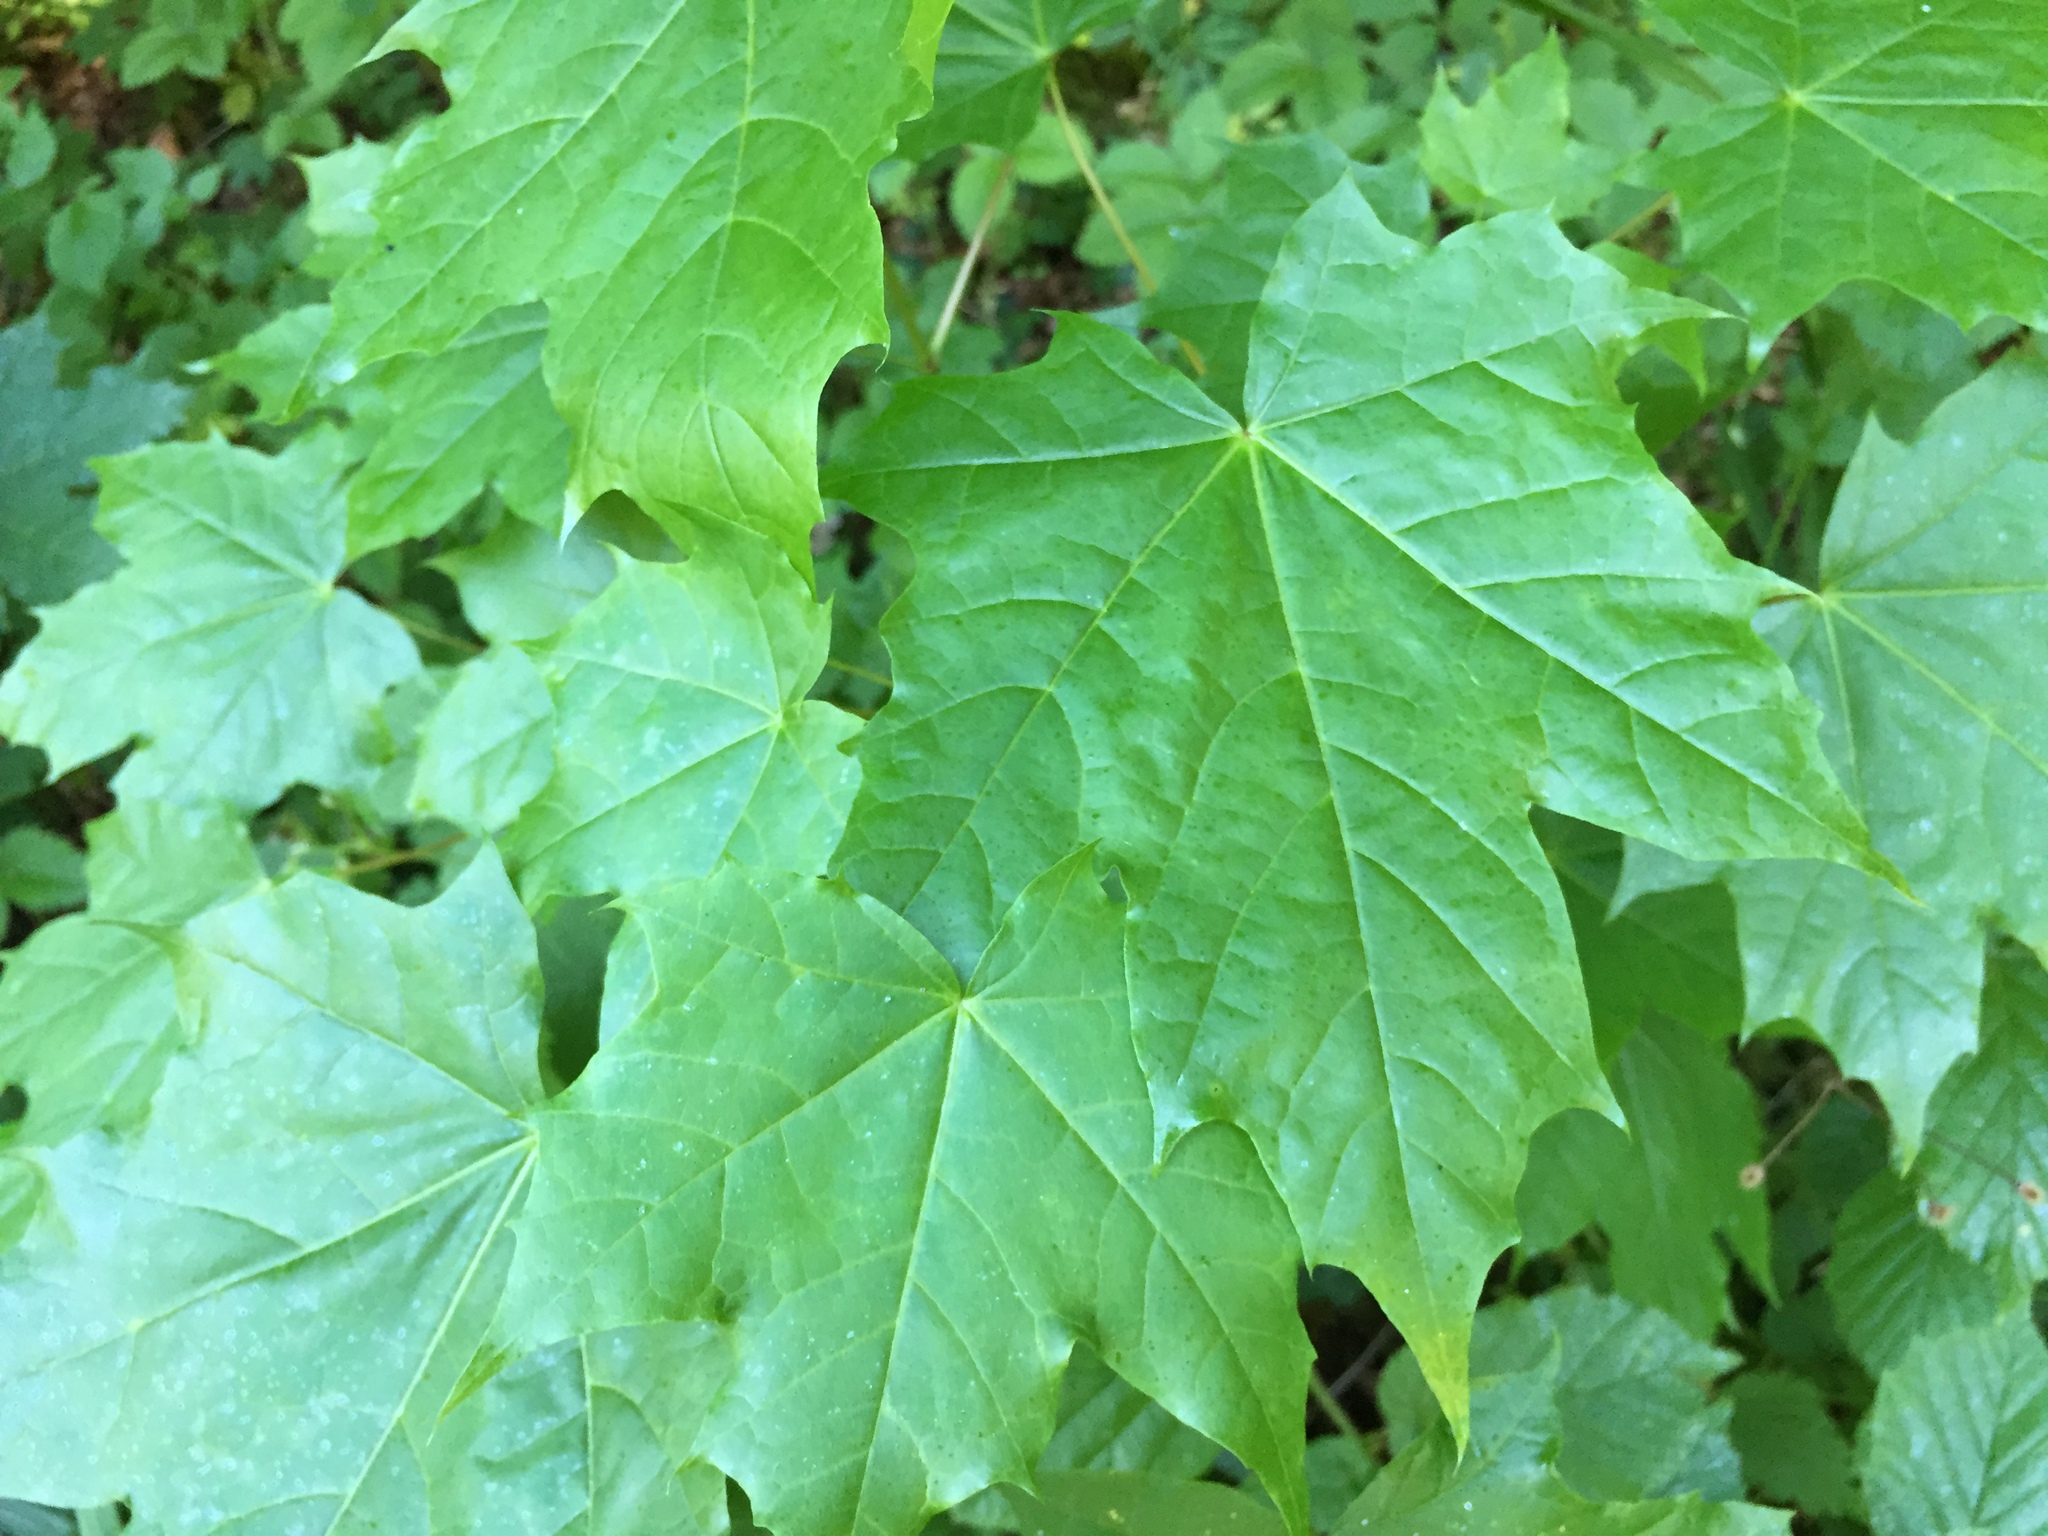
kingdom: Plantae
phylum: Tracheophyta
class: Magnoliopsida
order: Sapindales
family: Sapindaceae
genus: Acer
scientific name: Acer platanoides
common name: Norway maple
